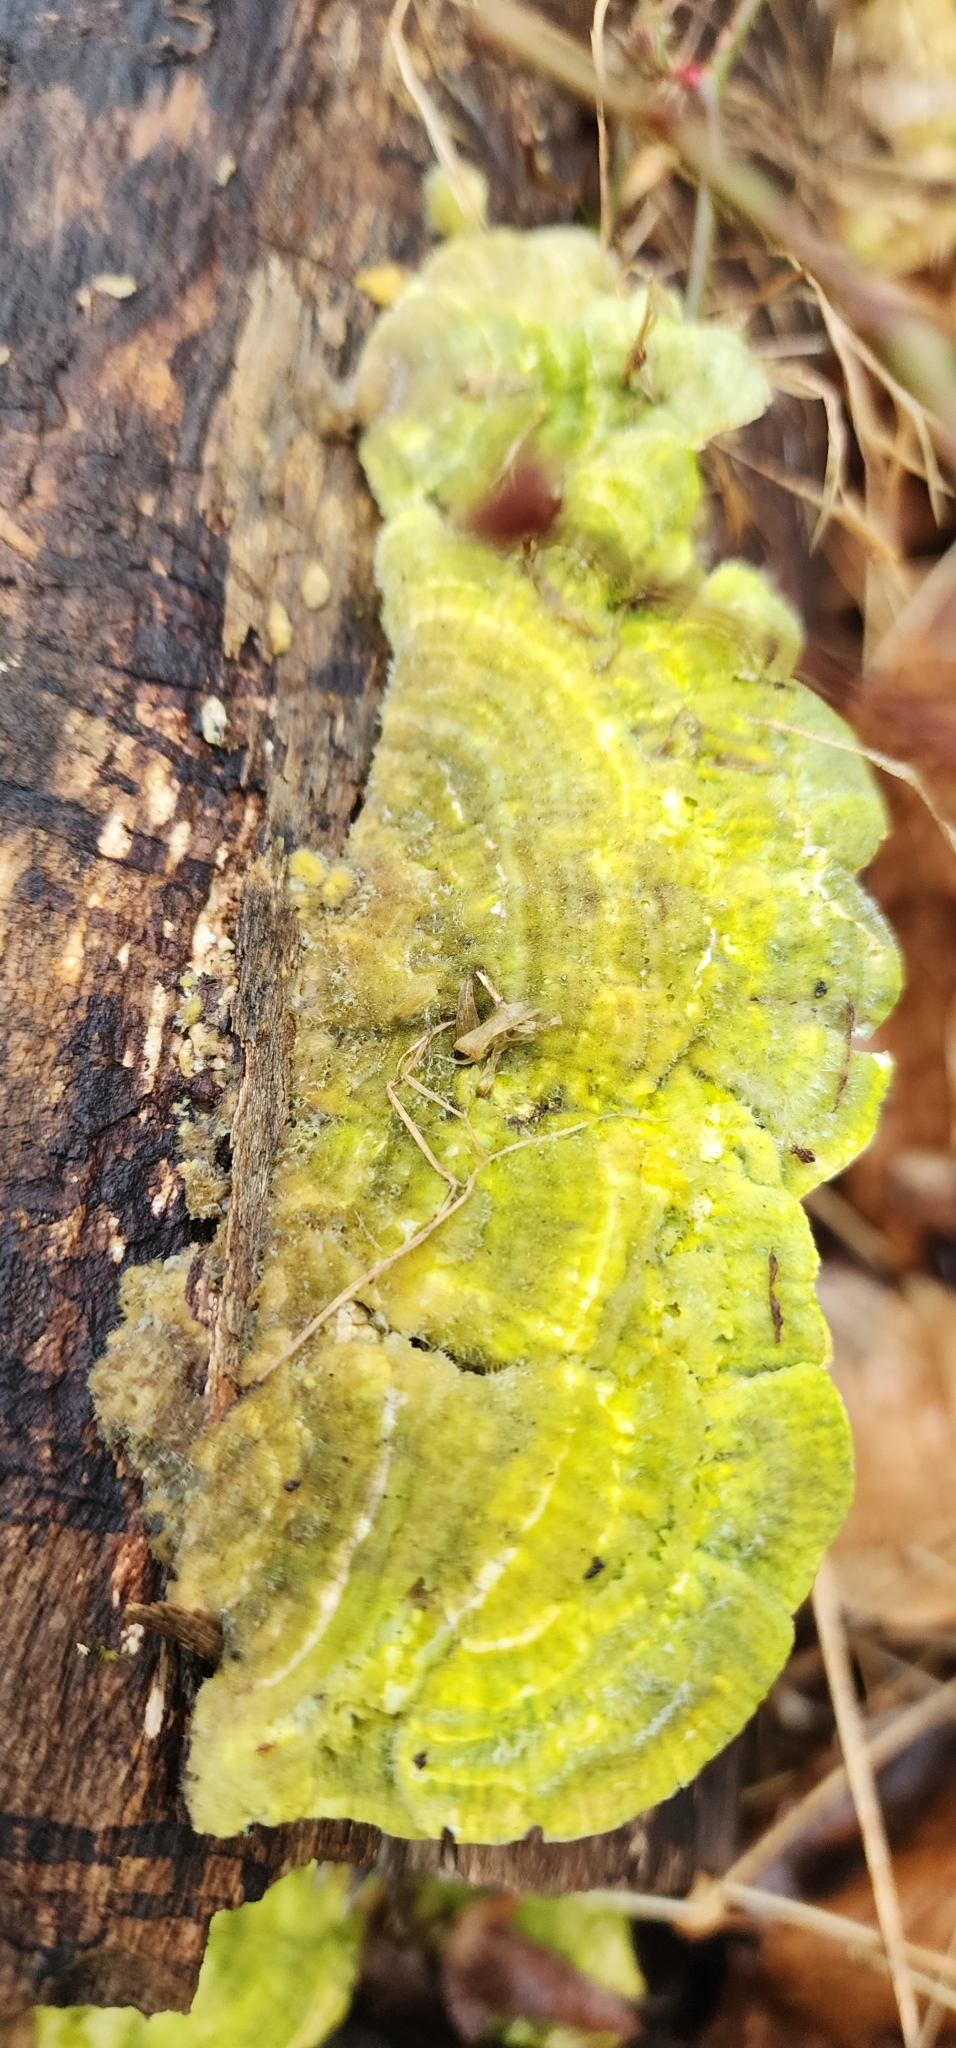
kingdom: Fungi
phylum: Basidiomycota
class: Agaricomycetes
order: Polyporales
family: Polyporaceae
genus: Lenzites
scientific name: Lenzites betulinus
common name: Birch mazegill
